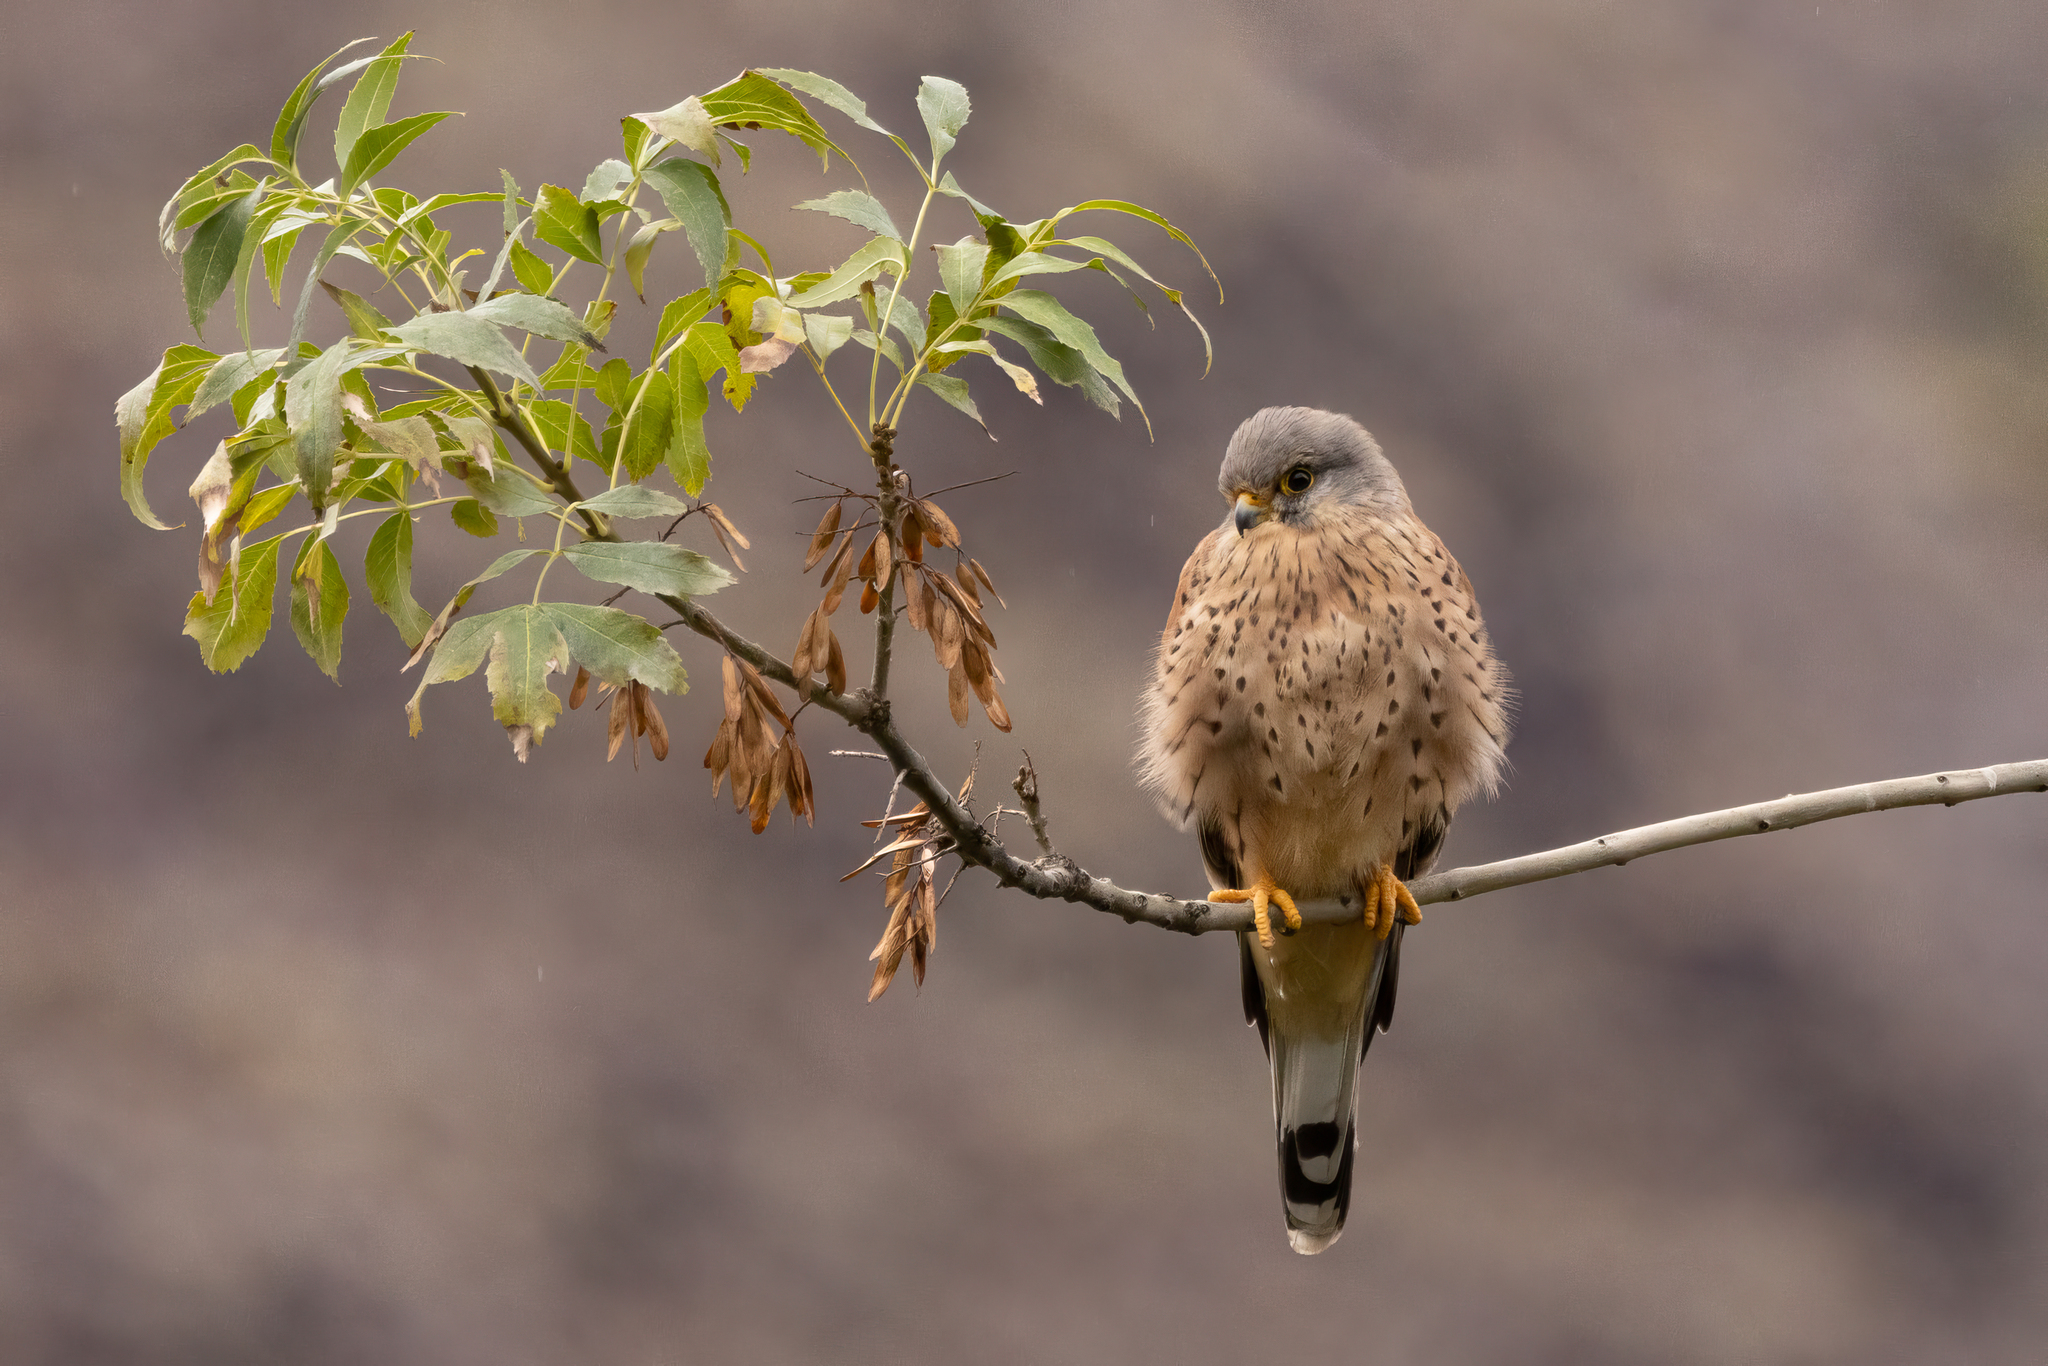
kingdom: Animalia
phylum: Chordata
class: Aves
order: Falconiformes
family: Falconidae
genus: Falco
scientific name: Falco tinnunculus
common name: Common kestrel
